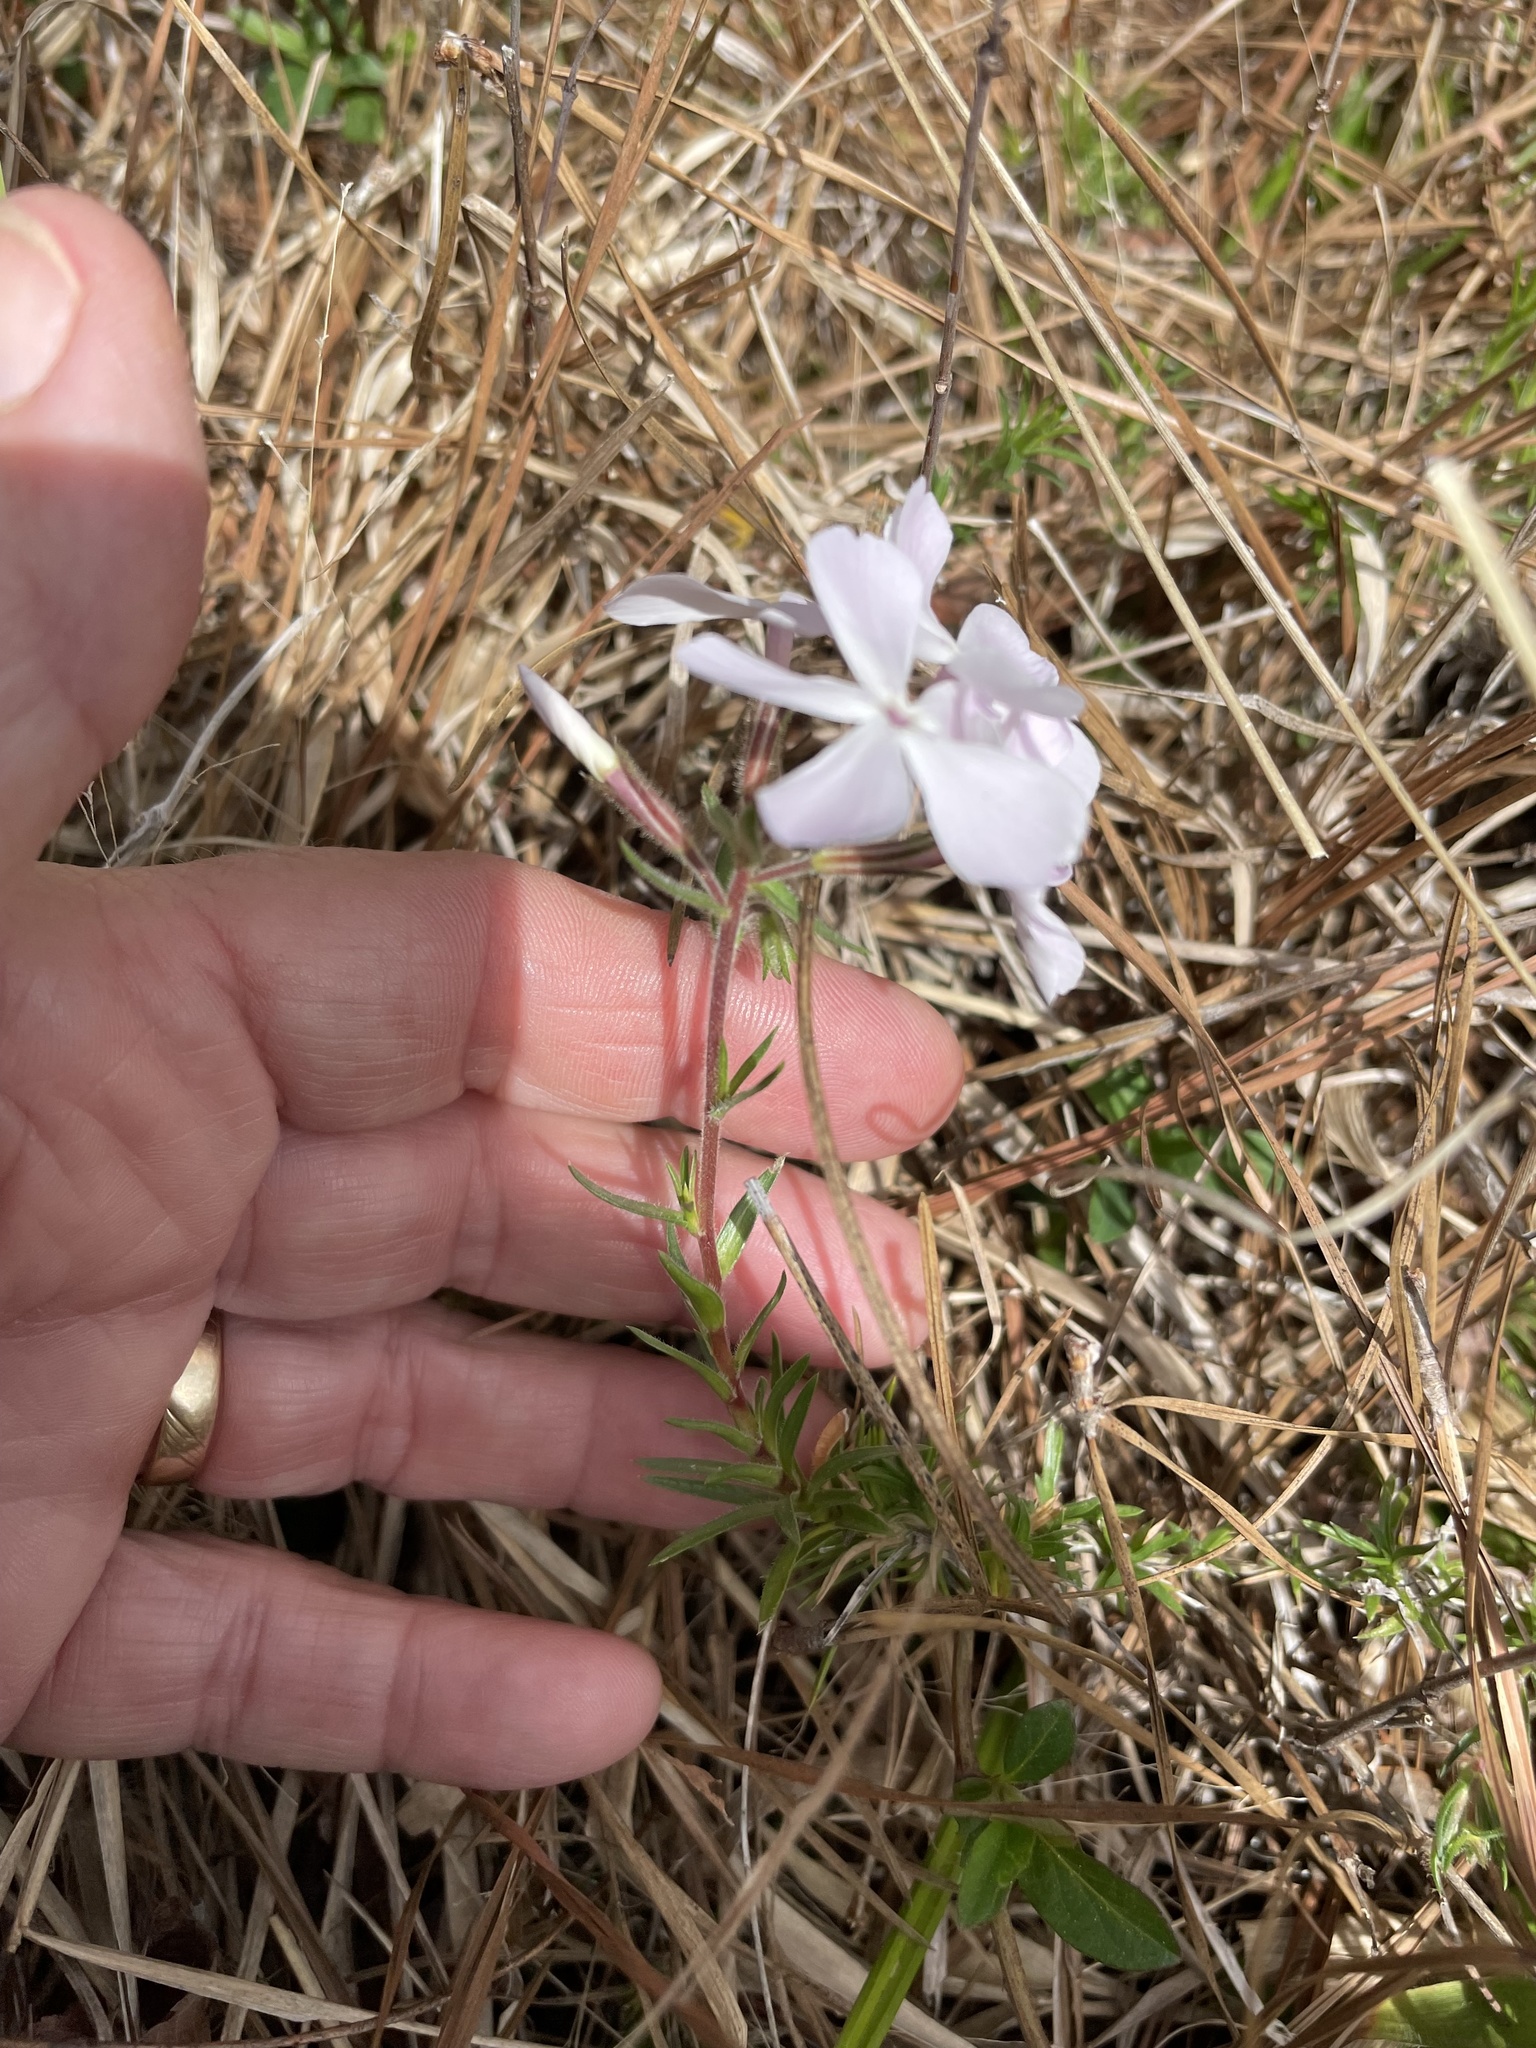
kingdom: Plantae
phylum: Tracheophyta
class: Magnoliopsida
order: Ericales
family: Polemoniaceae
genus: Phlox
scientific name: Phlox nivalis
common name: Trailing phlox
